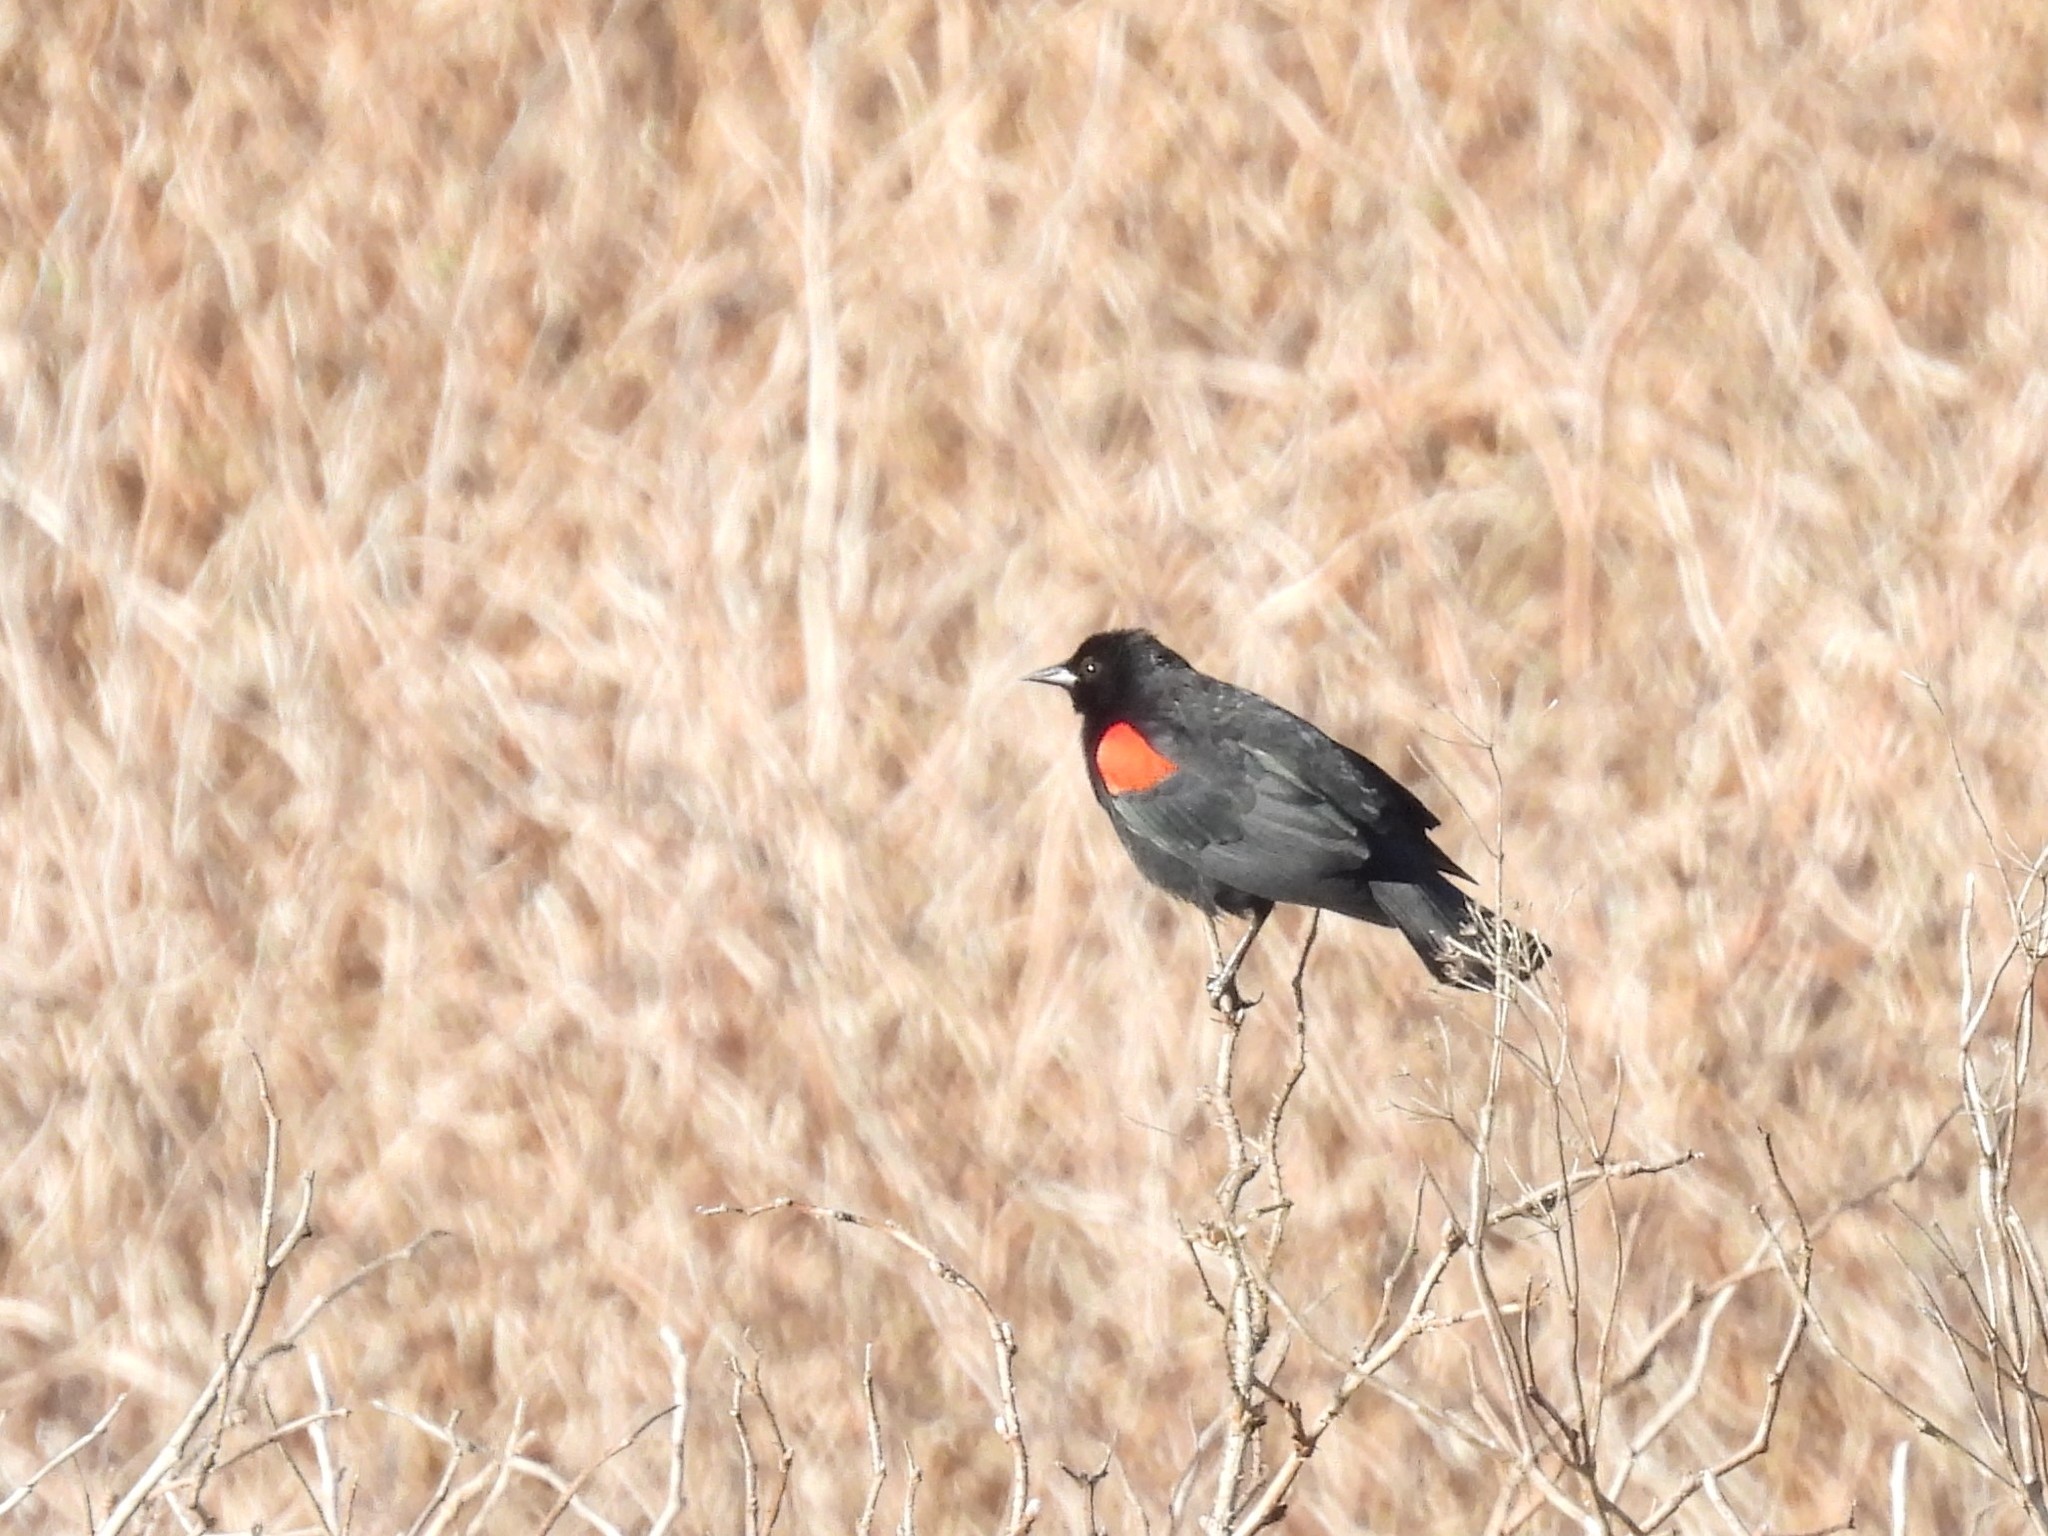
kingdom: Animalia
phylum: Chordata
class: Aves
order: Passeriformes
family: Icteridae
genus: Agelaius
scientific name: Agelaius phoeniceus
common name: Red-winged blackbird
